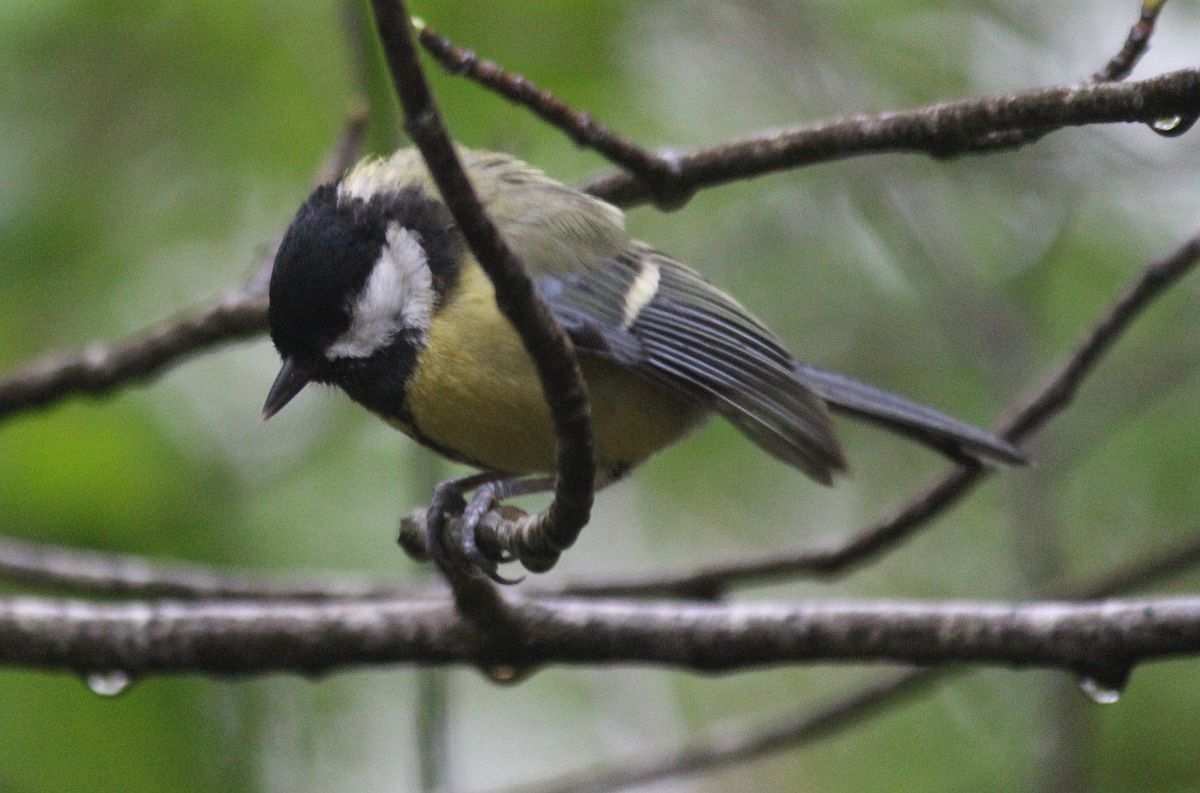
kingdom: Animalia
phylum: Chordata
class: Aves
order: Passeriformes
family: Paridae
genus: Parus
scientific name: Parus major
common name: Great tit
